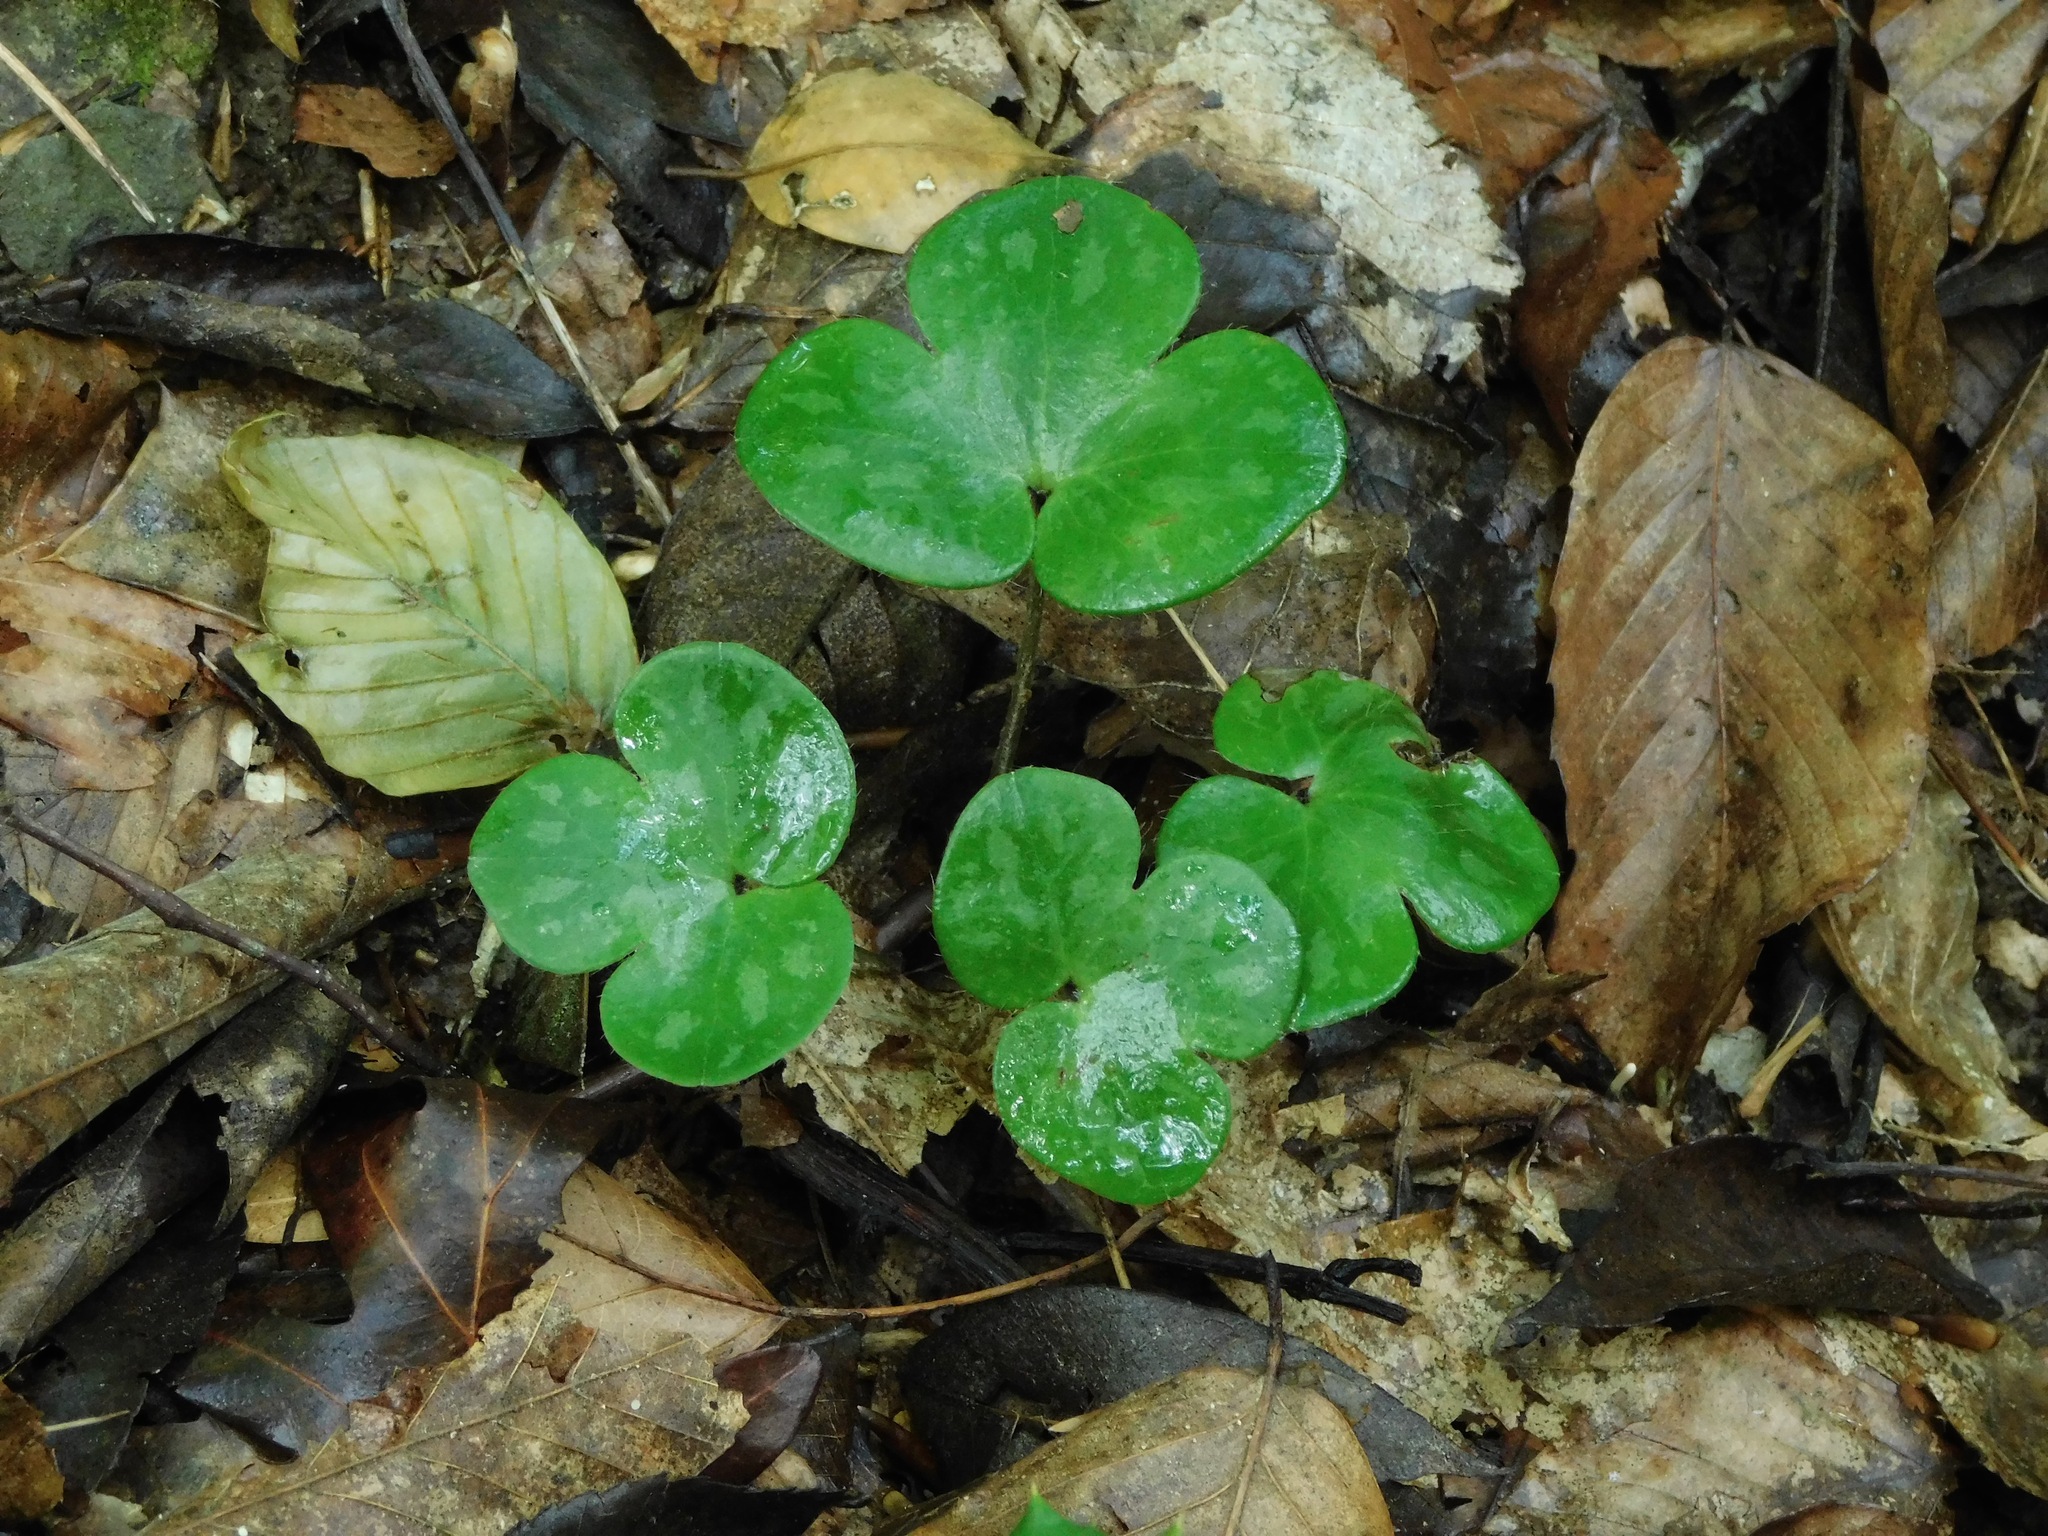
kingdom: Plantae
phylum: Tracheophyta
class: Magnoliopsida
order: Ranunculales
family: Ranunculaceae
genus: Hepatica
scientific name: Hepatica americana
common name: American hepatica
